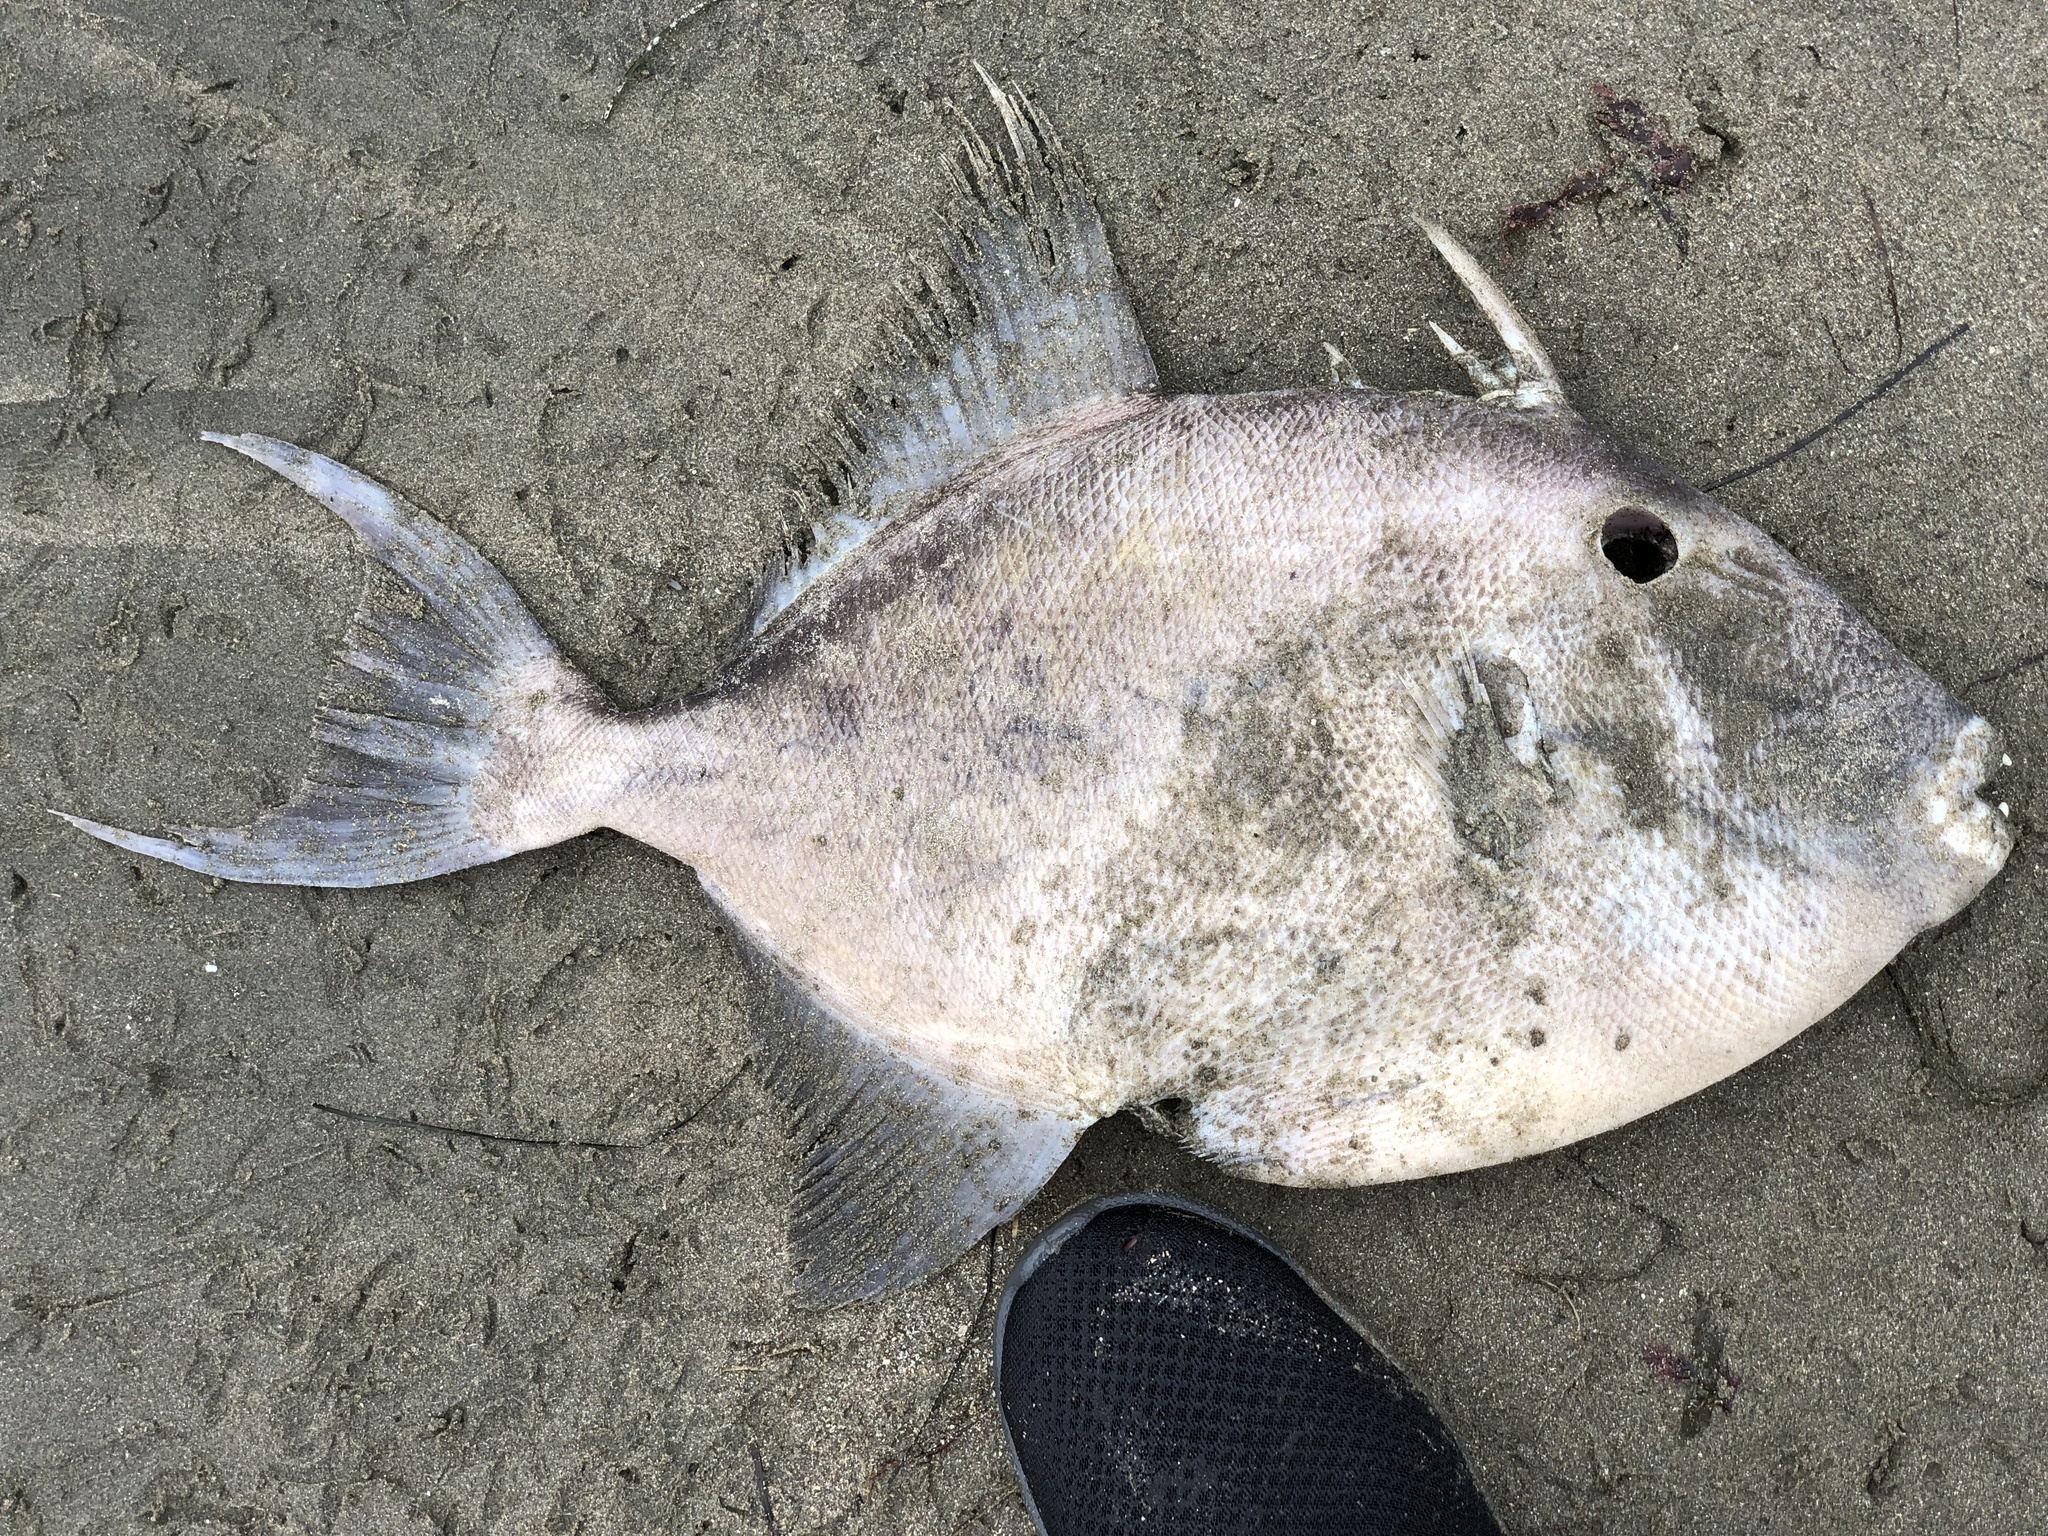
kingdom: Animalia
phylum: Chordata
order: Tetraodontiformes
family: Balistidae
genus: Balistes
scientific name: Balistes polylepis
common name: Finescale triggerfish
